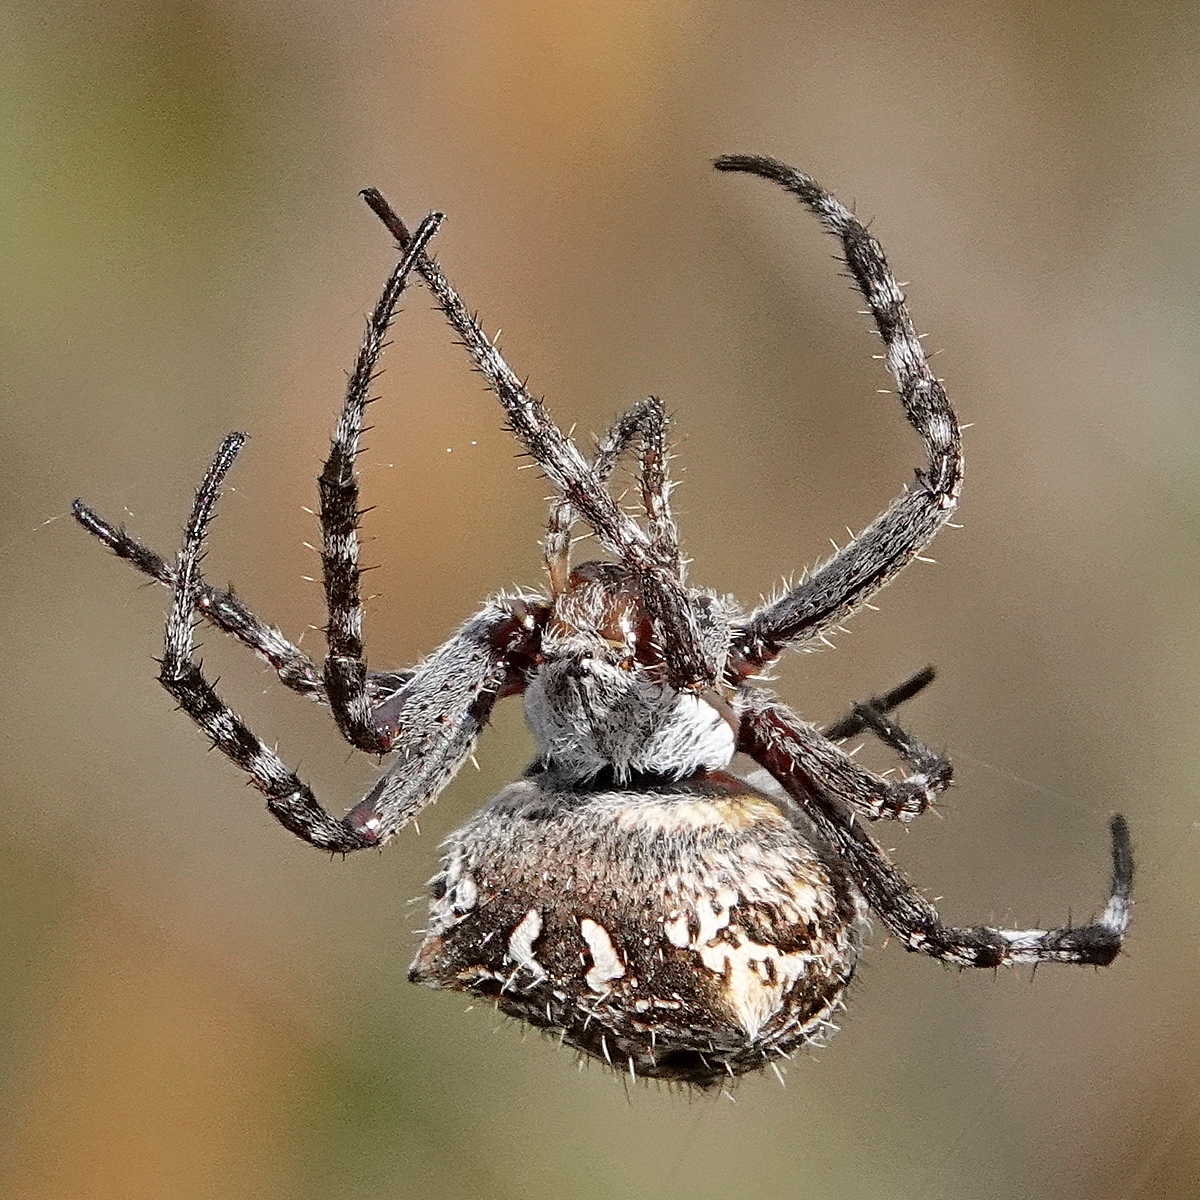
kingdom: Animalia
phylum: Arthropoda
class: Arachnida
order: Araneae
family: Araneidae
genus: Backobourkia
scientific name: Backobourkia
